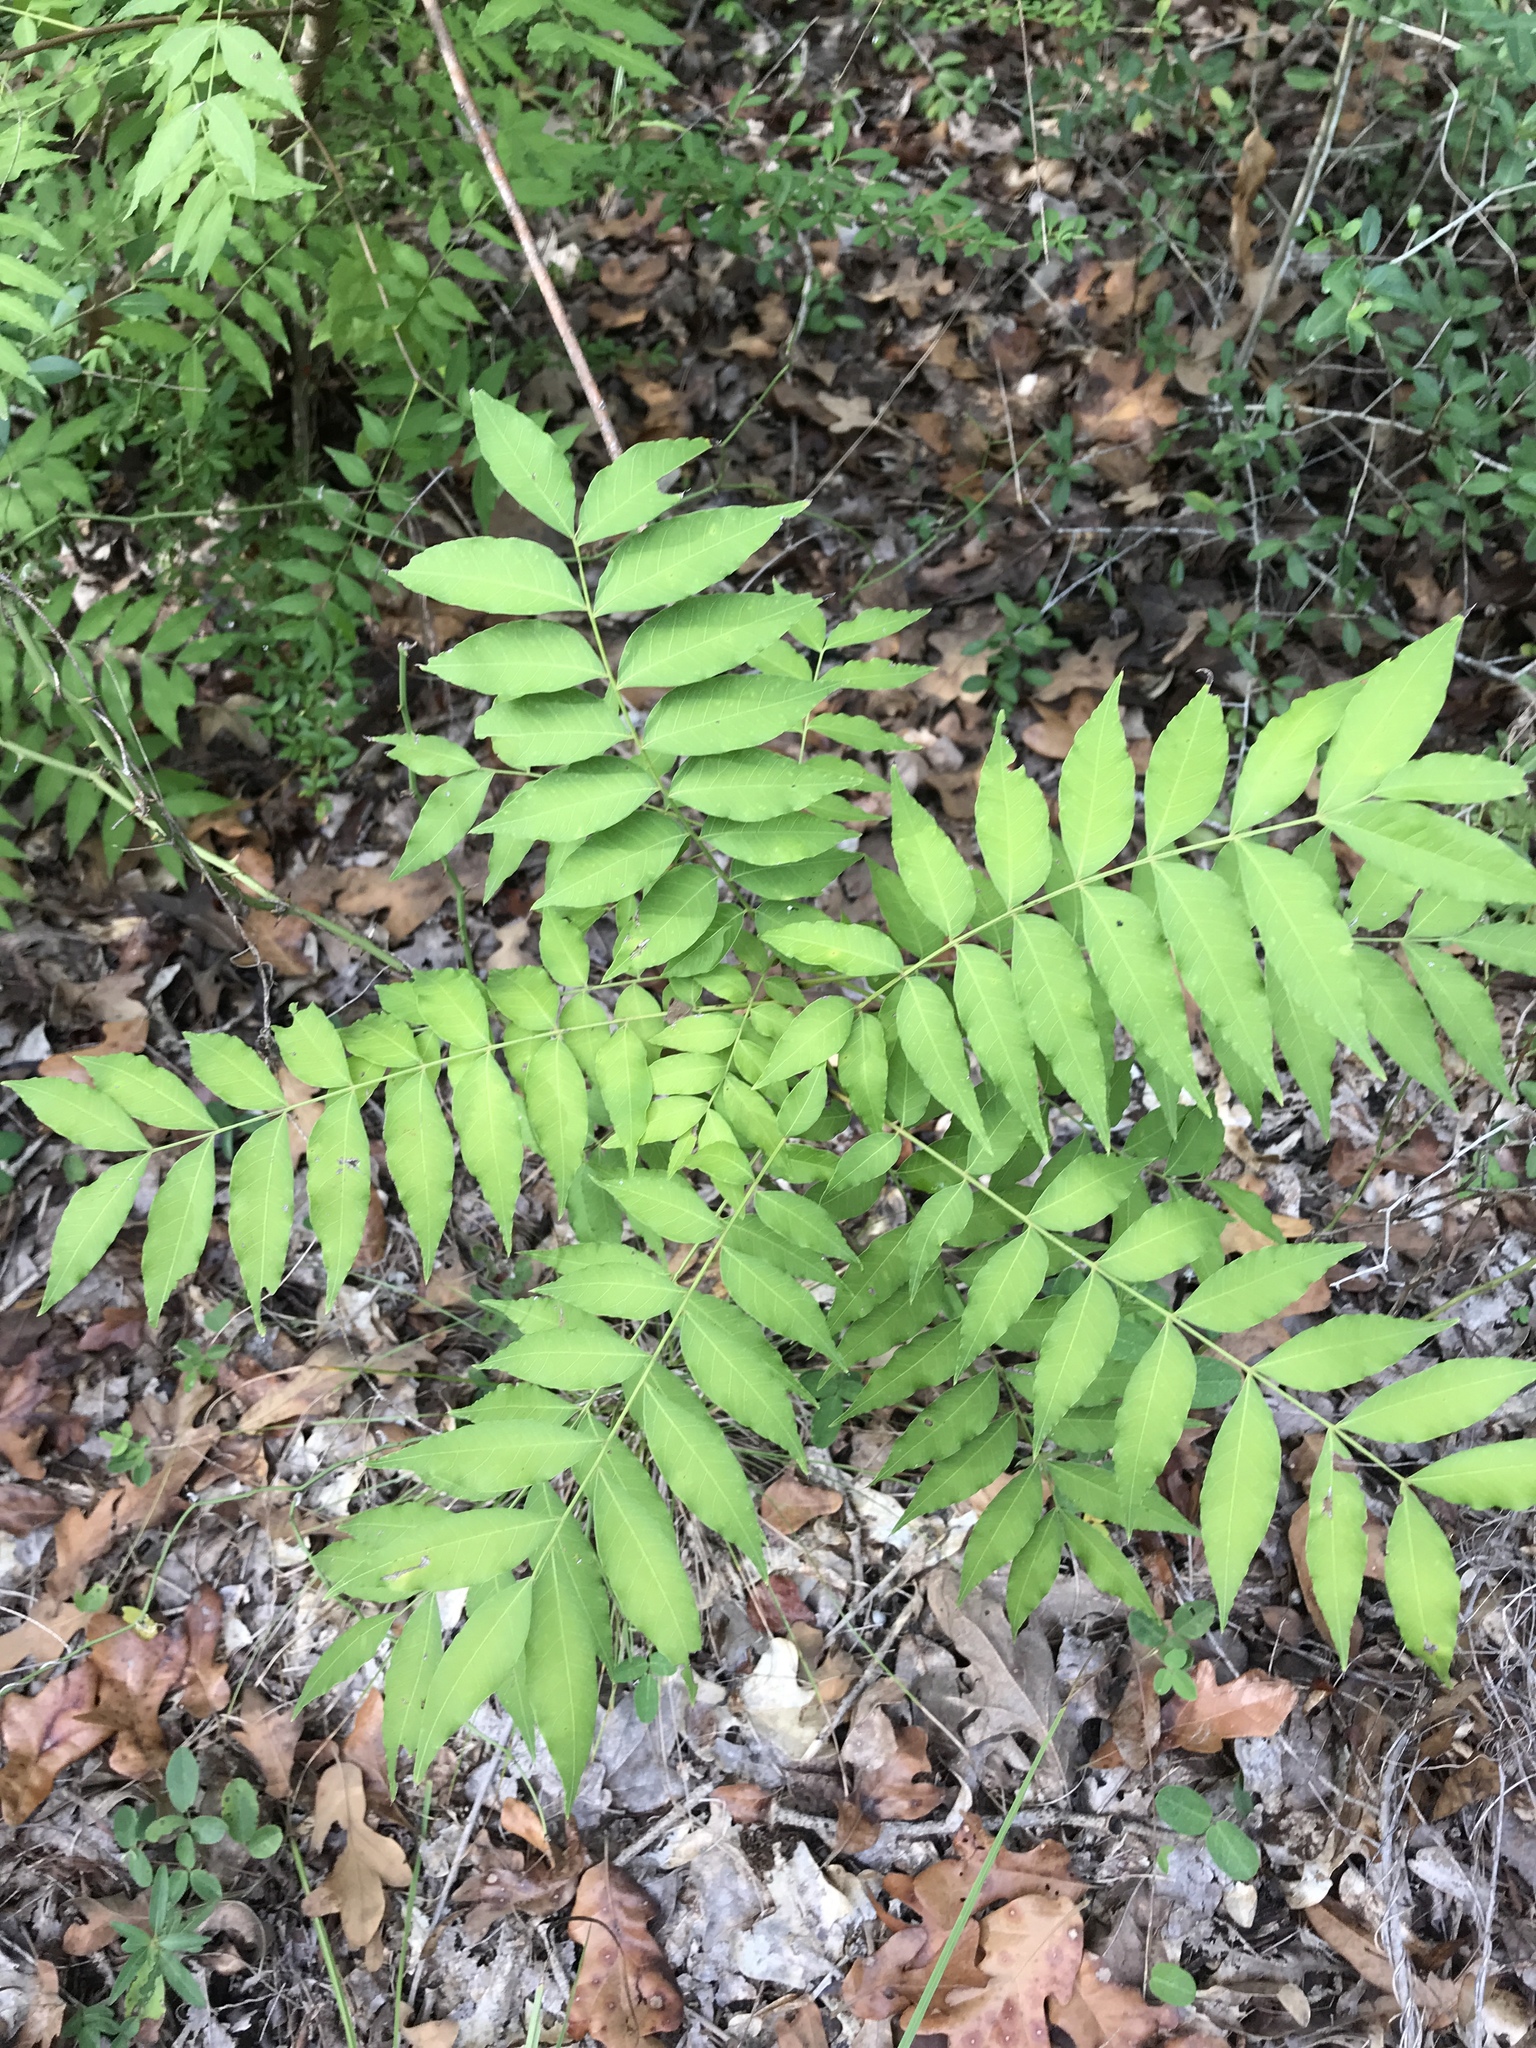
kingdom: Plantae
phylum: Tracheophyta
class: Magnoliopsida
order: Sapindales
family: Anacardiaceae
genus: Pistacia
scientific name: Pistacia chinensis
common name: Chinese pistache
